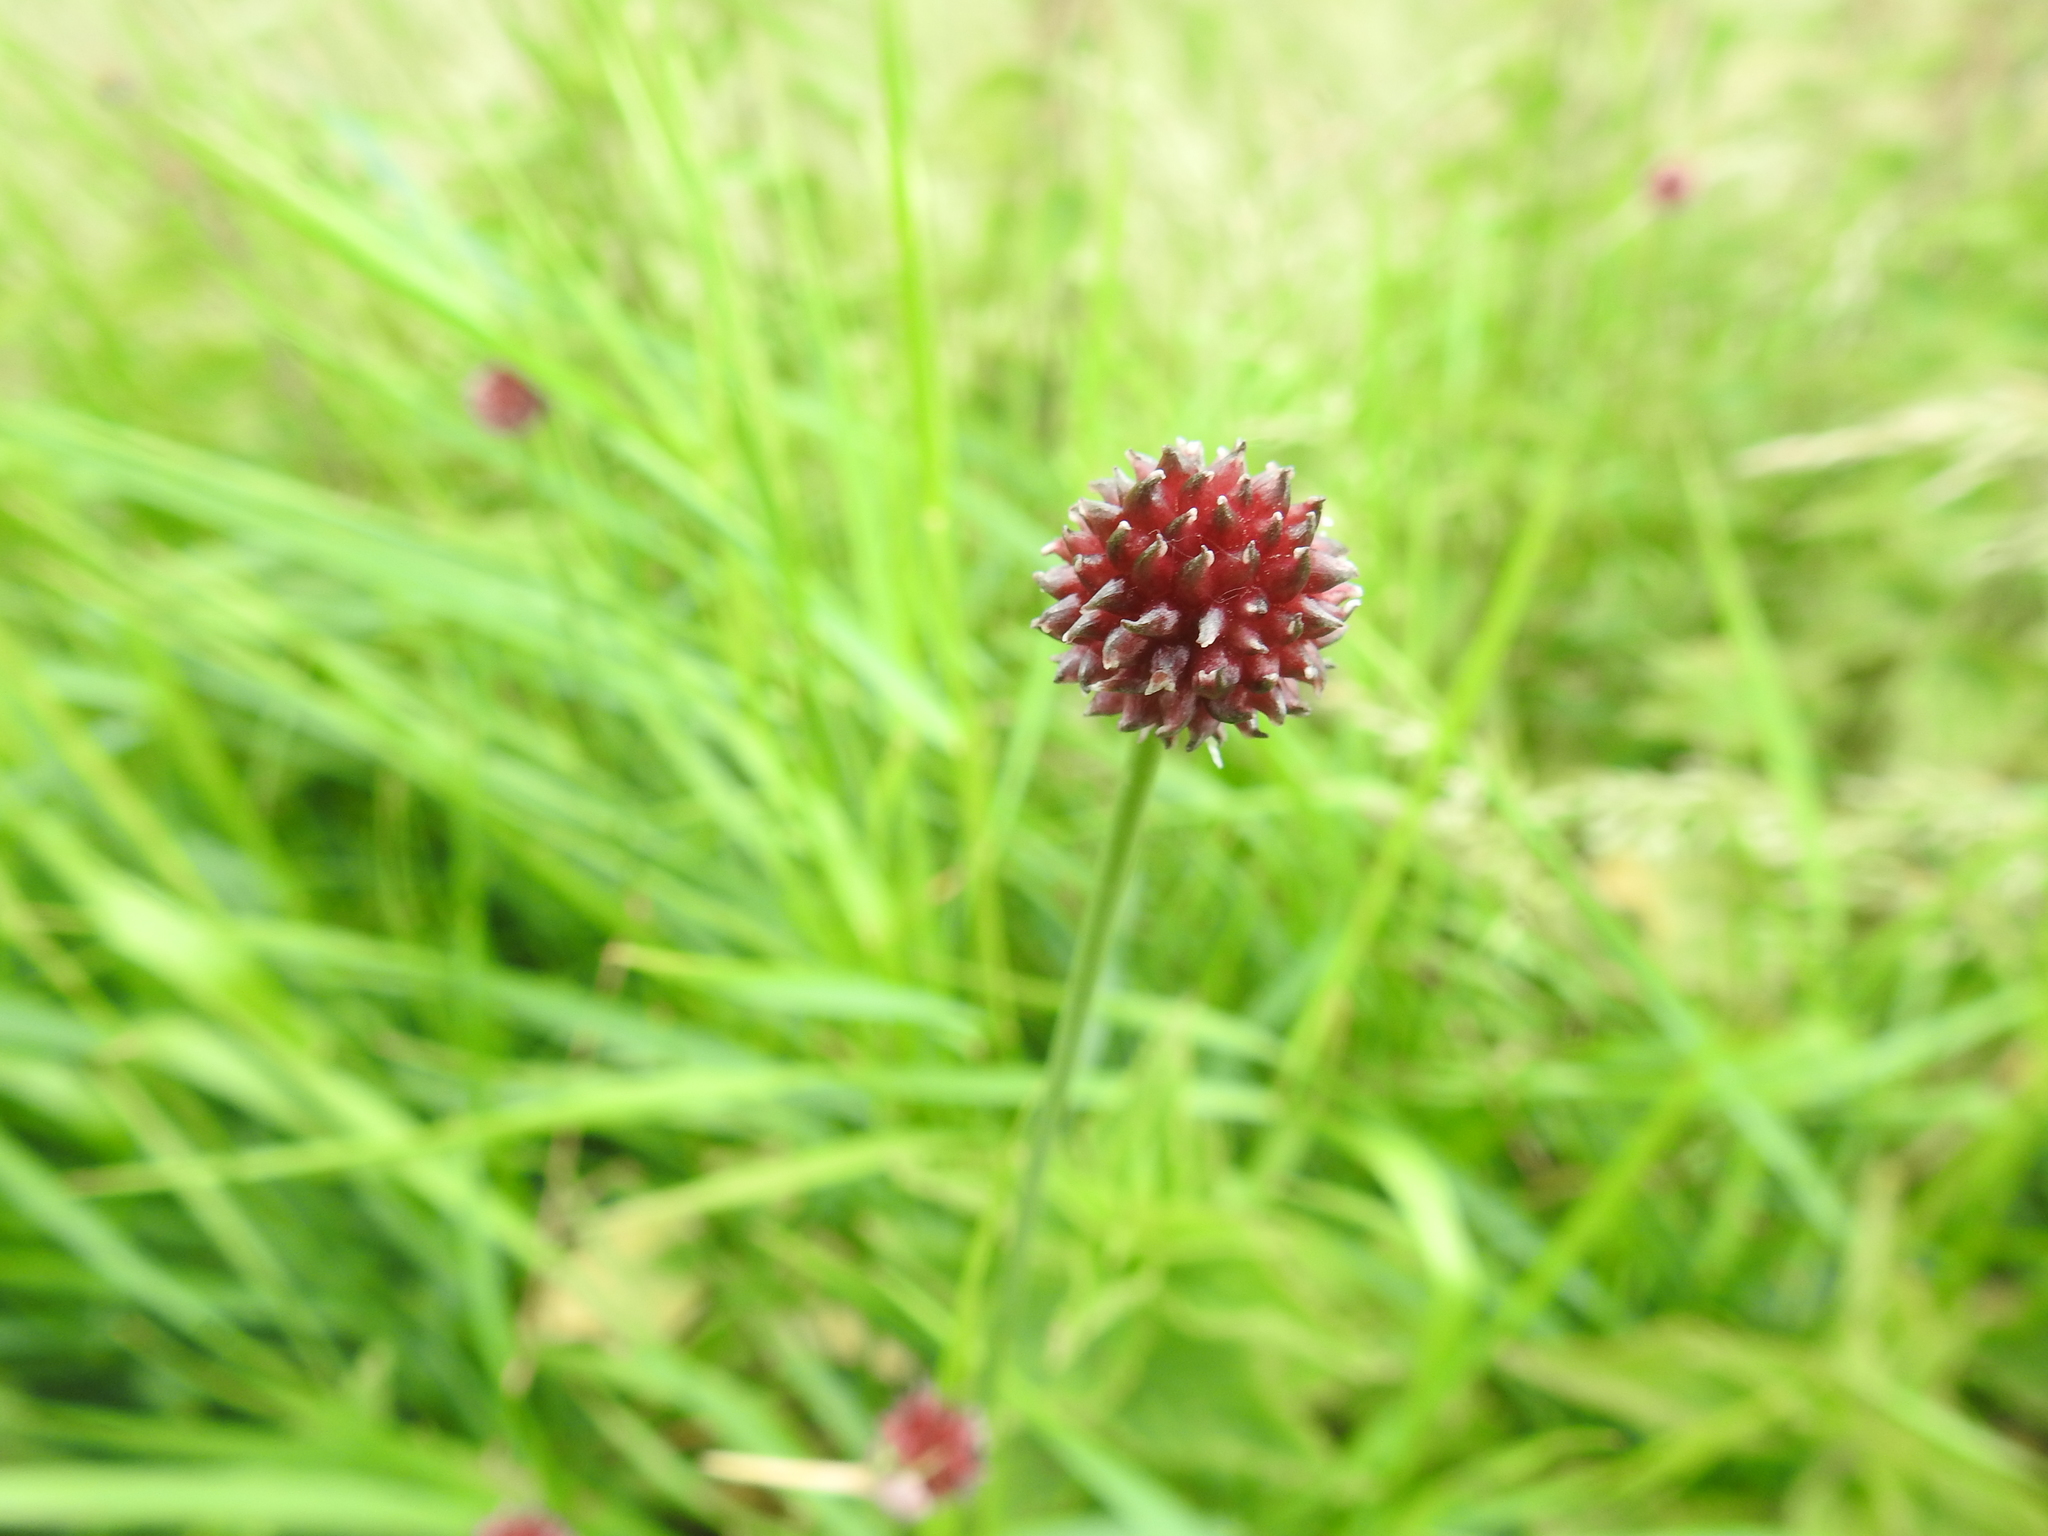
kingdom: Plantae
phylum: Tracheophyta
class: Liliopsida
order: Asparagales
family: Amaryllidaceae
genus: Allium
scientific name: Allium vineale
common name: Crow garlic
